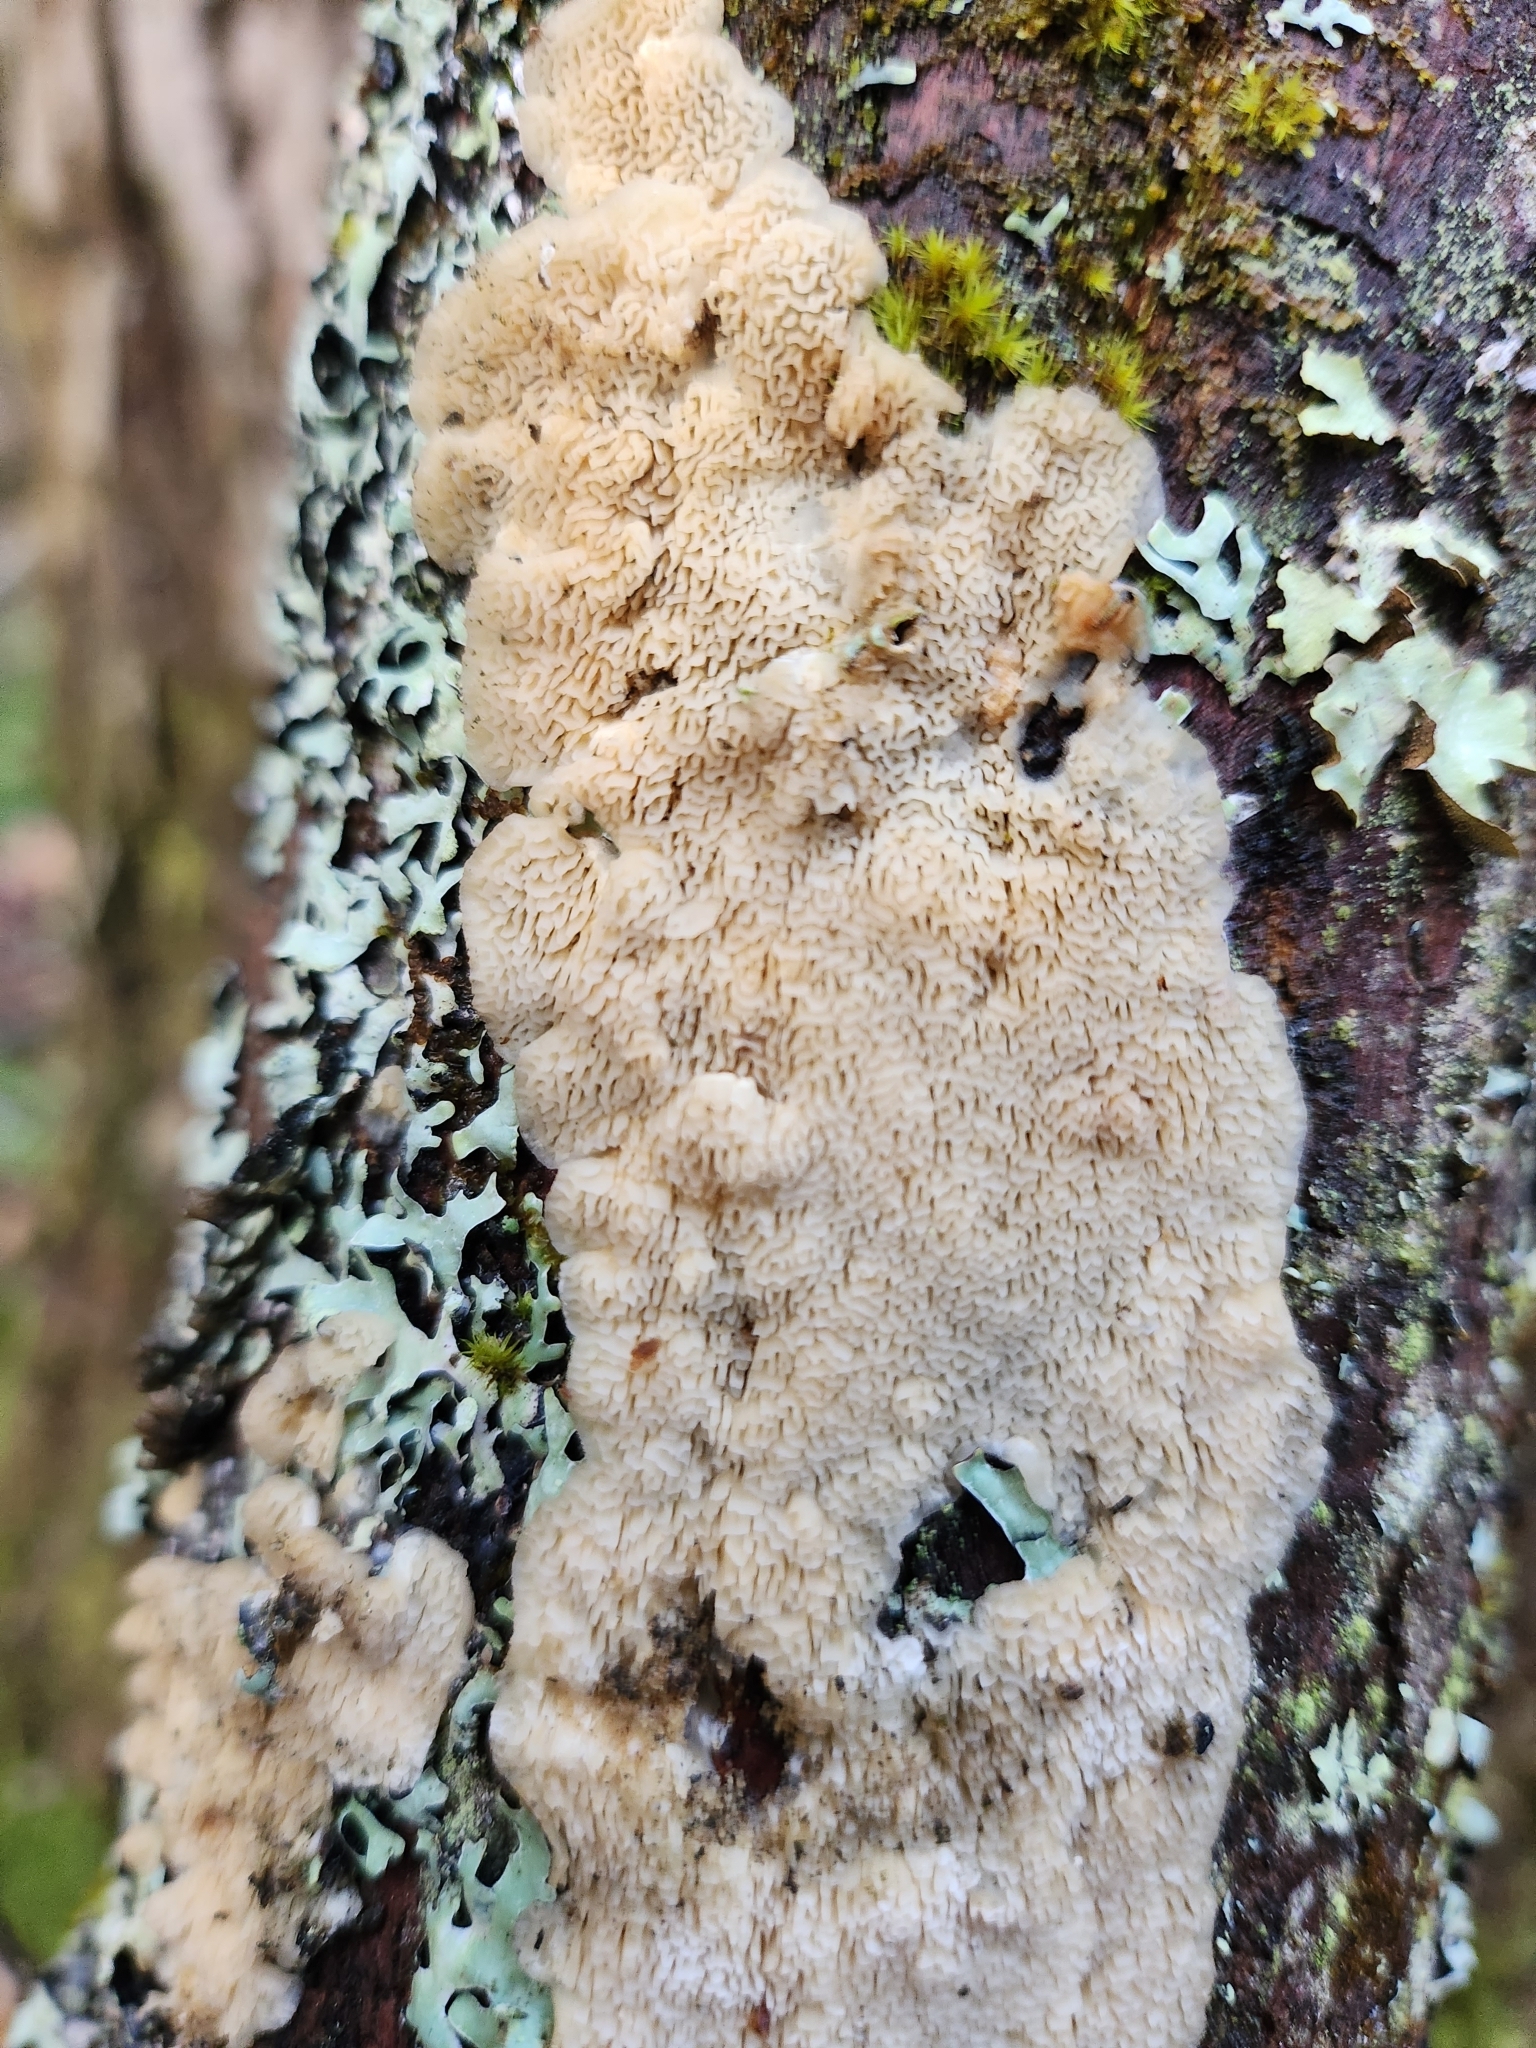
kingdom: Fungi
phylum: Basidiomycota
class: Agaricomycetes
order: Hymenochaetales
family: Schizoporaceae
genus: Schizopora
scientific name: Schizopora paradoxa
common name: Split porecrust
